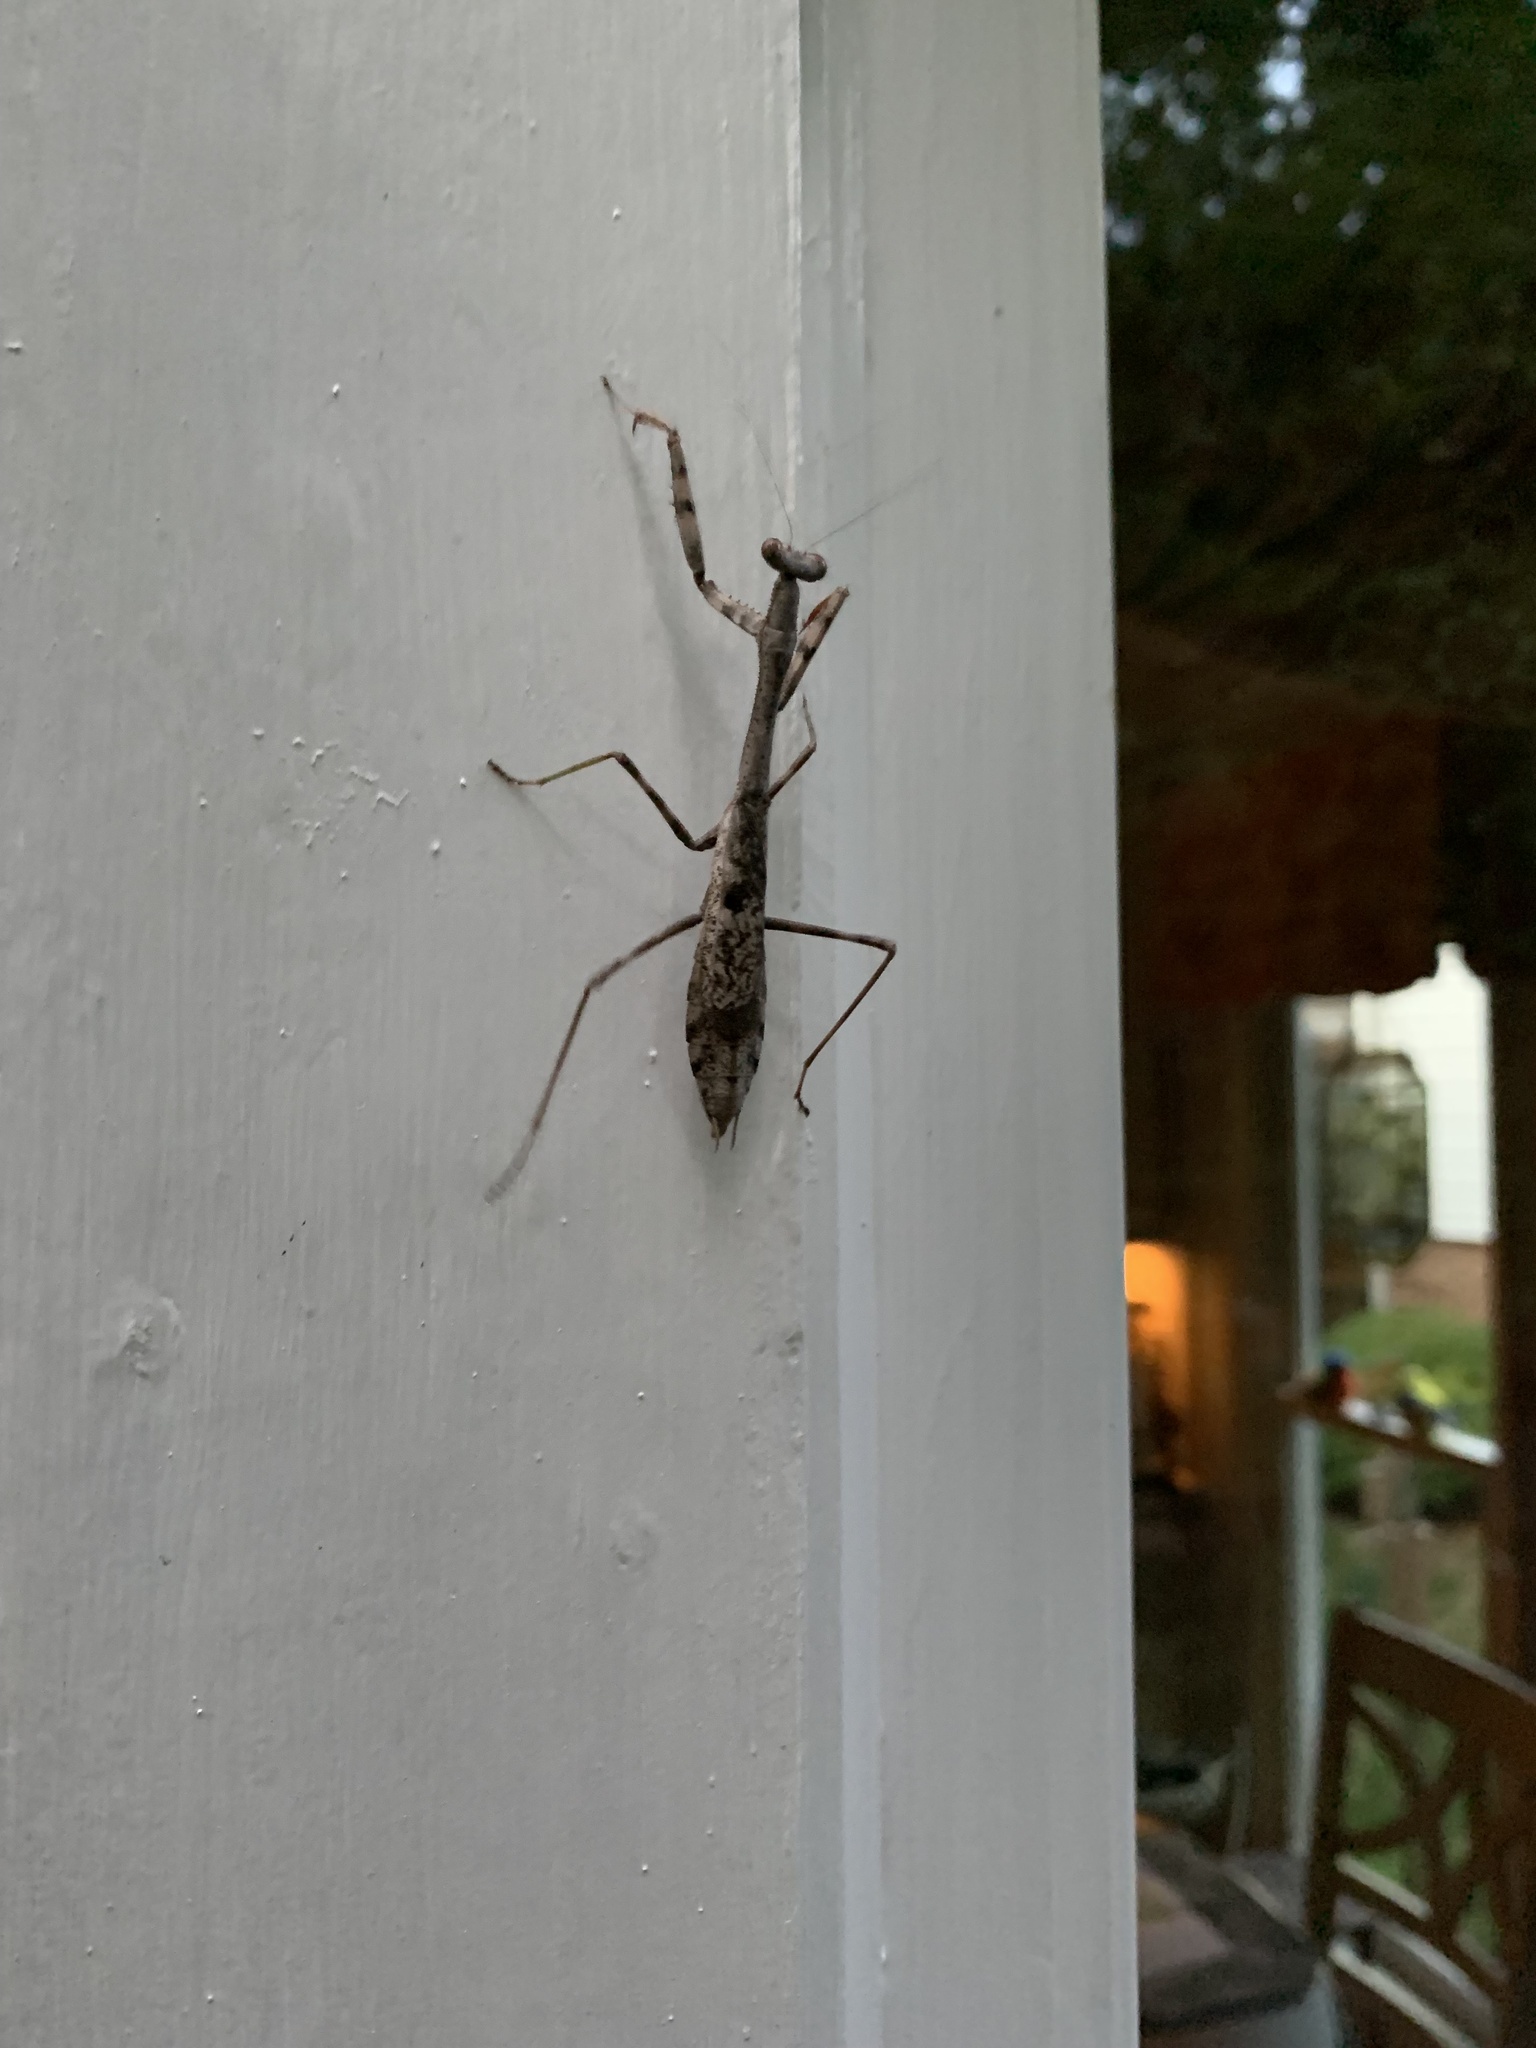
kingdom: Animalia
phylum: Arthropoda
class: Insecta
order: Mantodea
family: Mantidae
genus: Stagmomantis
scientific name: Stagmomantis carolina
